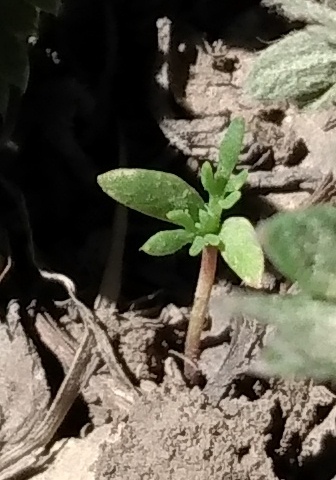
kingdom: Plantae
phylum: Tracheophyta
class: Magnoliopsida
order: Ericales
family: Polemoniaceae
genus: Ipomopsis
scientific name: Ipomopsis aggregata
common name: Scarlet gilia
